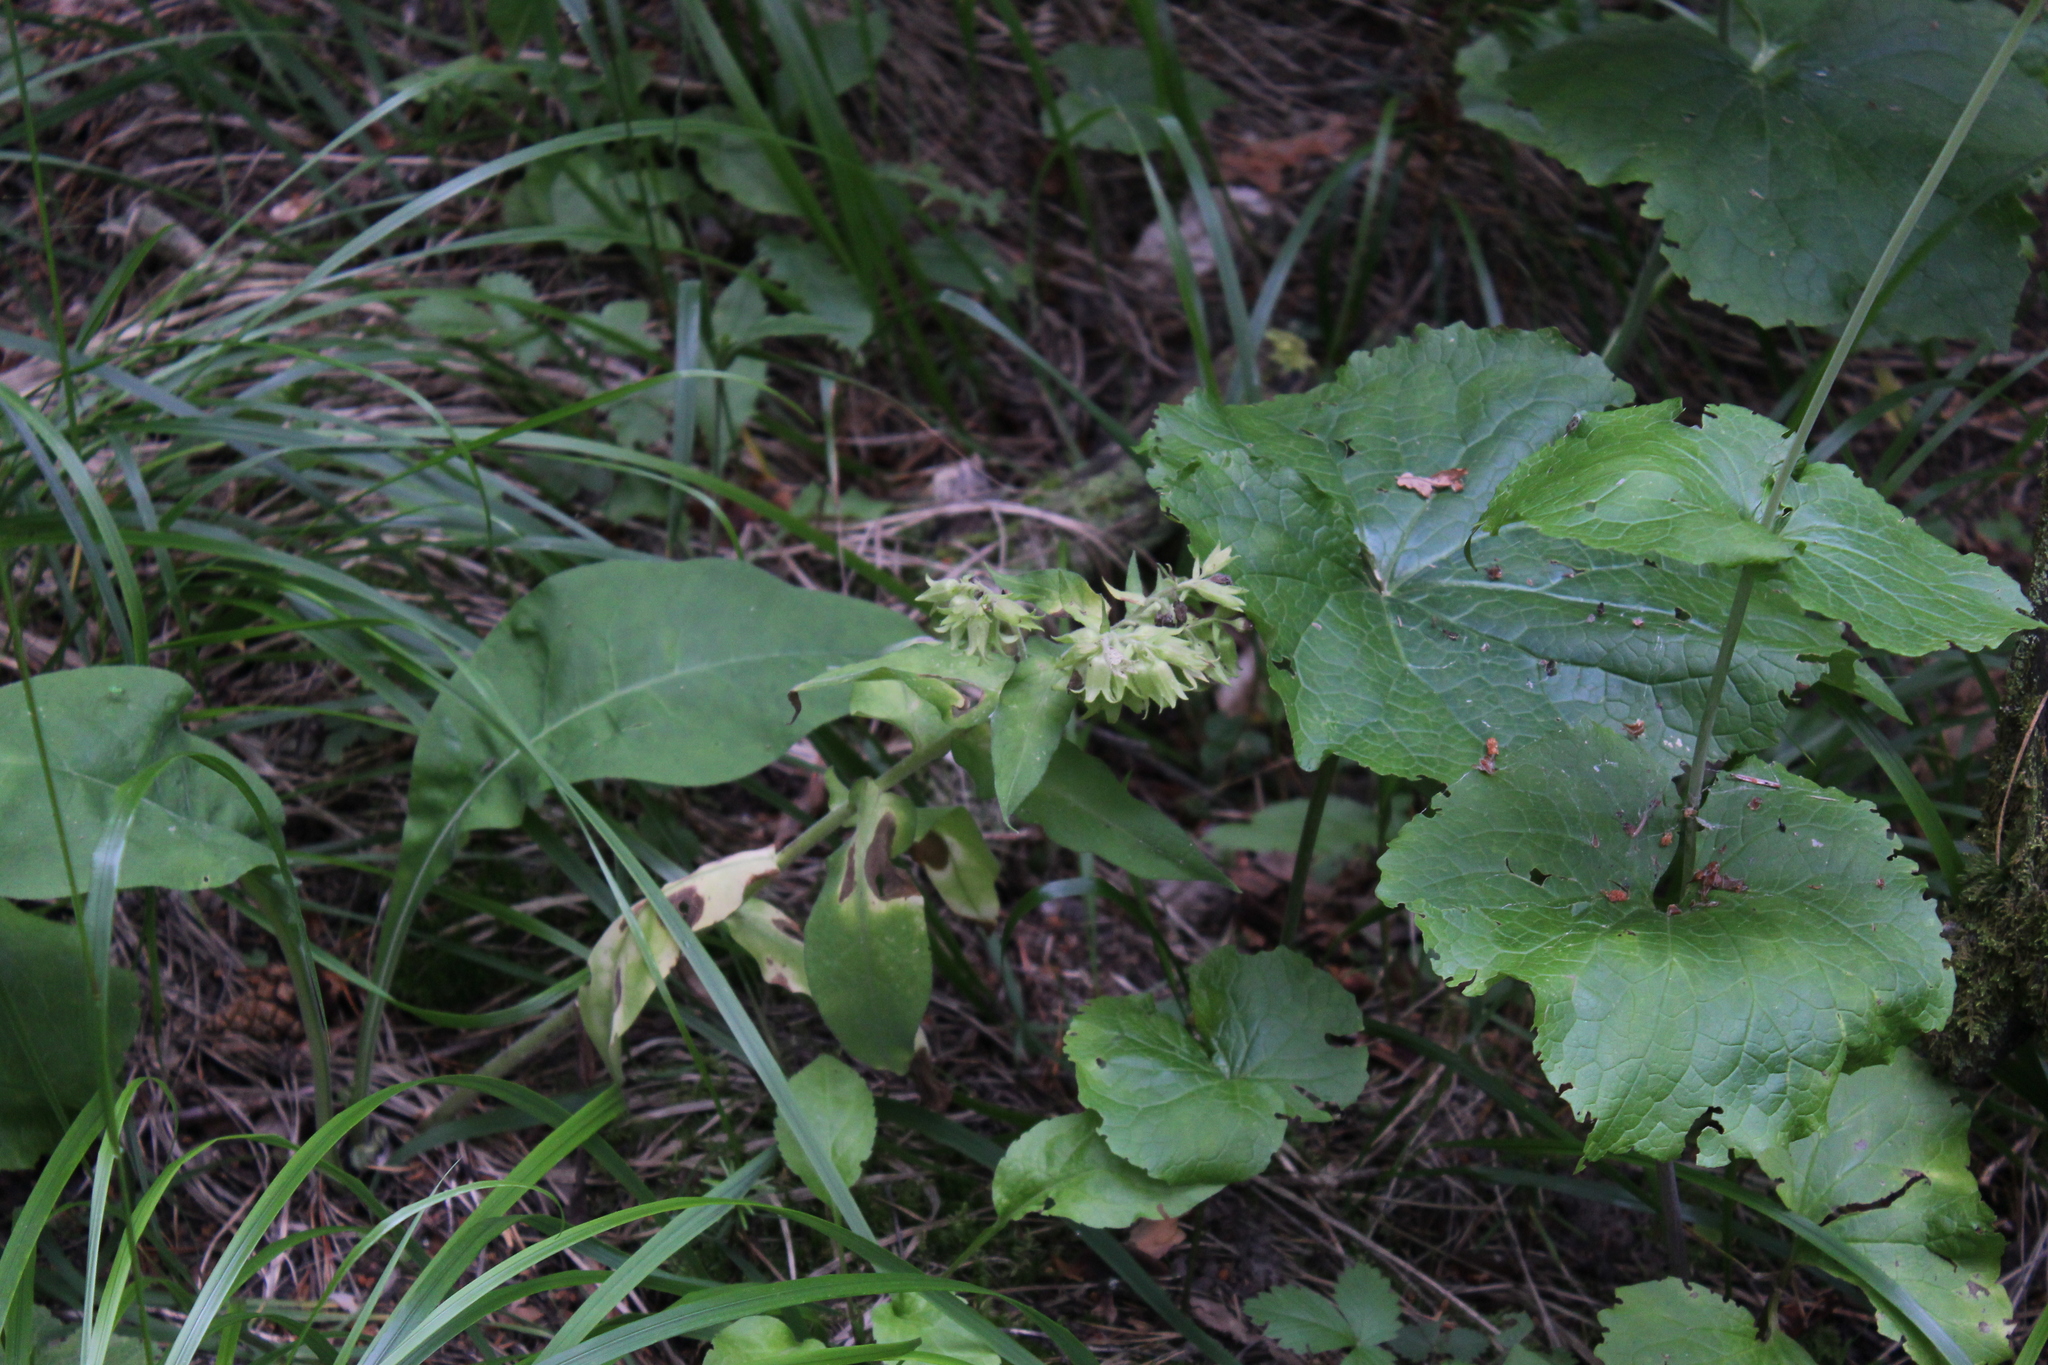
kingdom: Plantae
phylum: Tracheophyta
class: Magnoliopsida
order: Boraginales
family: Boraginaceae
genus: Pulmonaria
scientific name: Pulmonaria mollis
